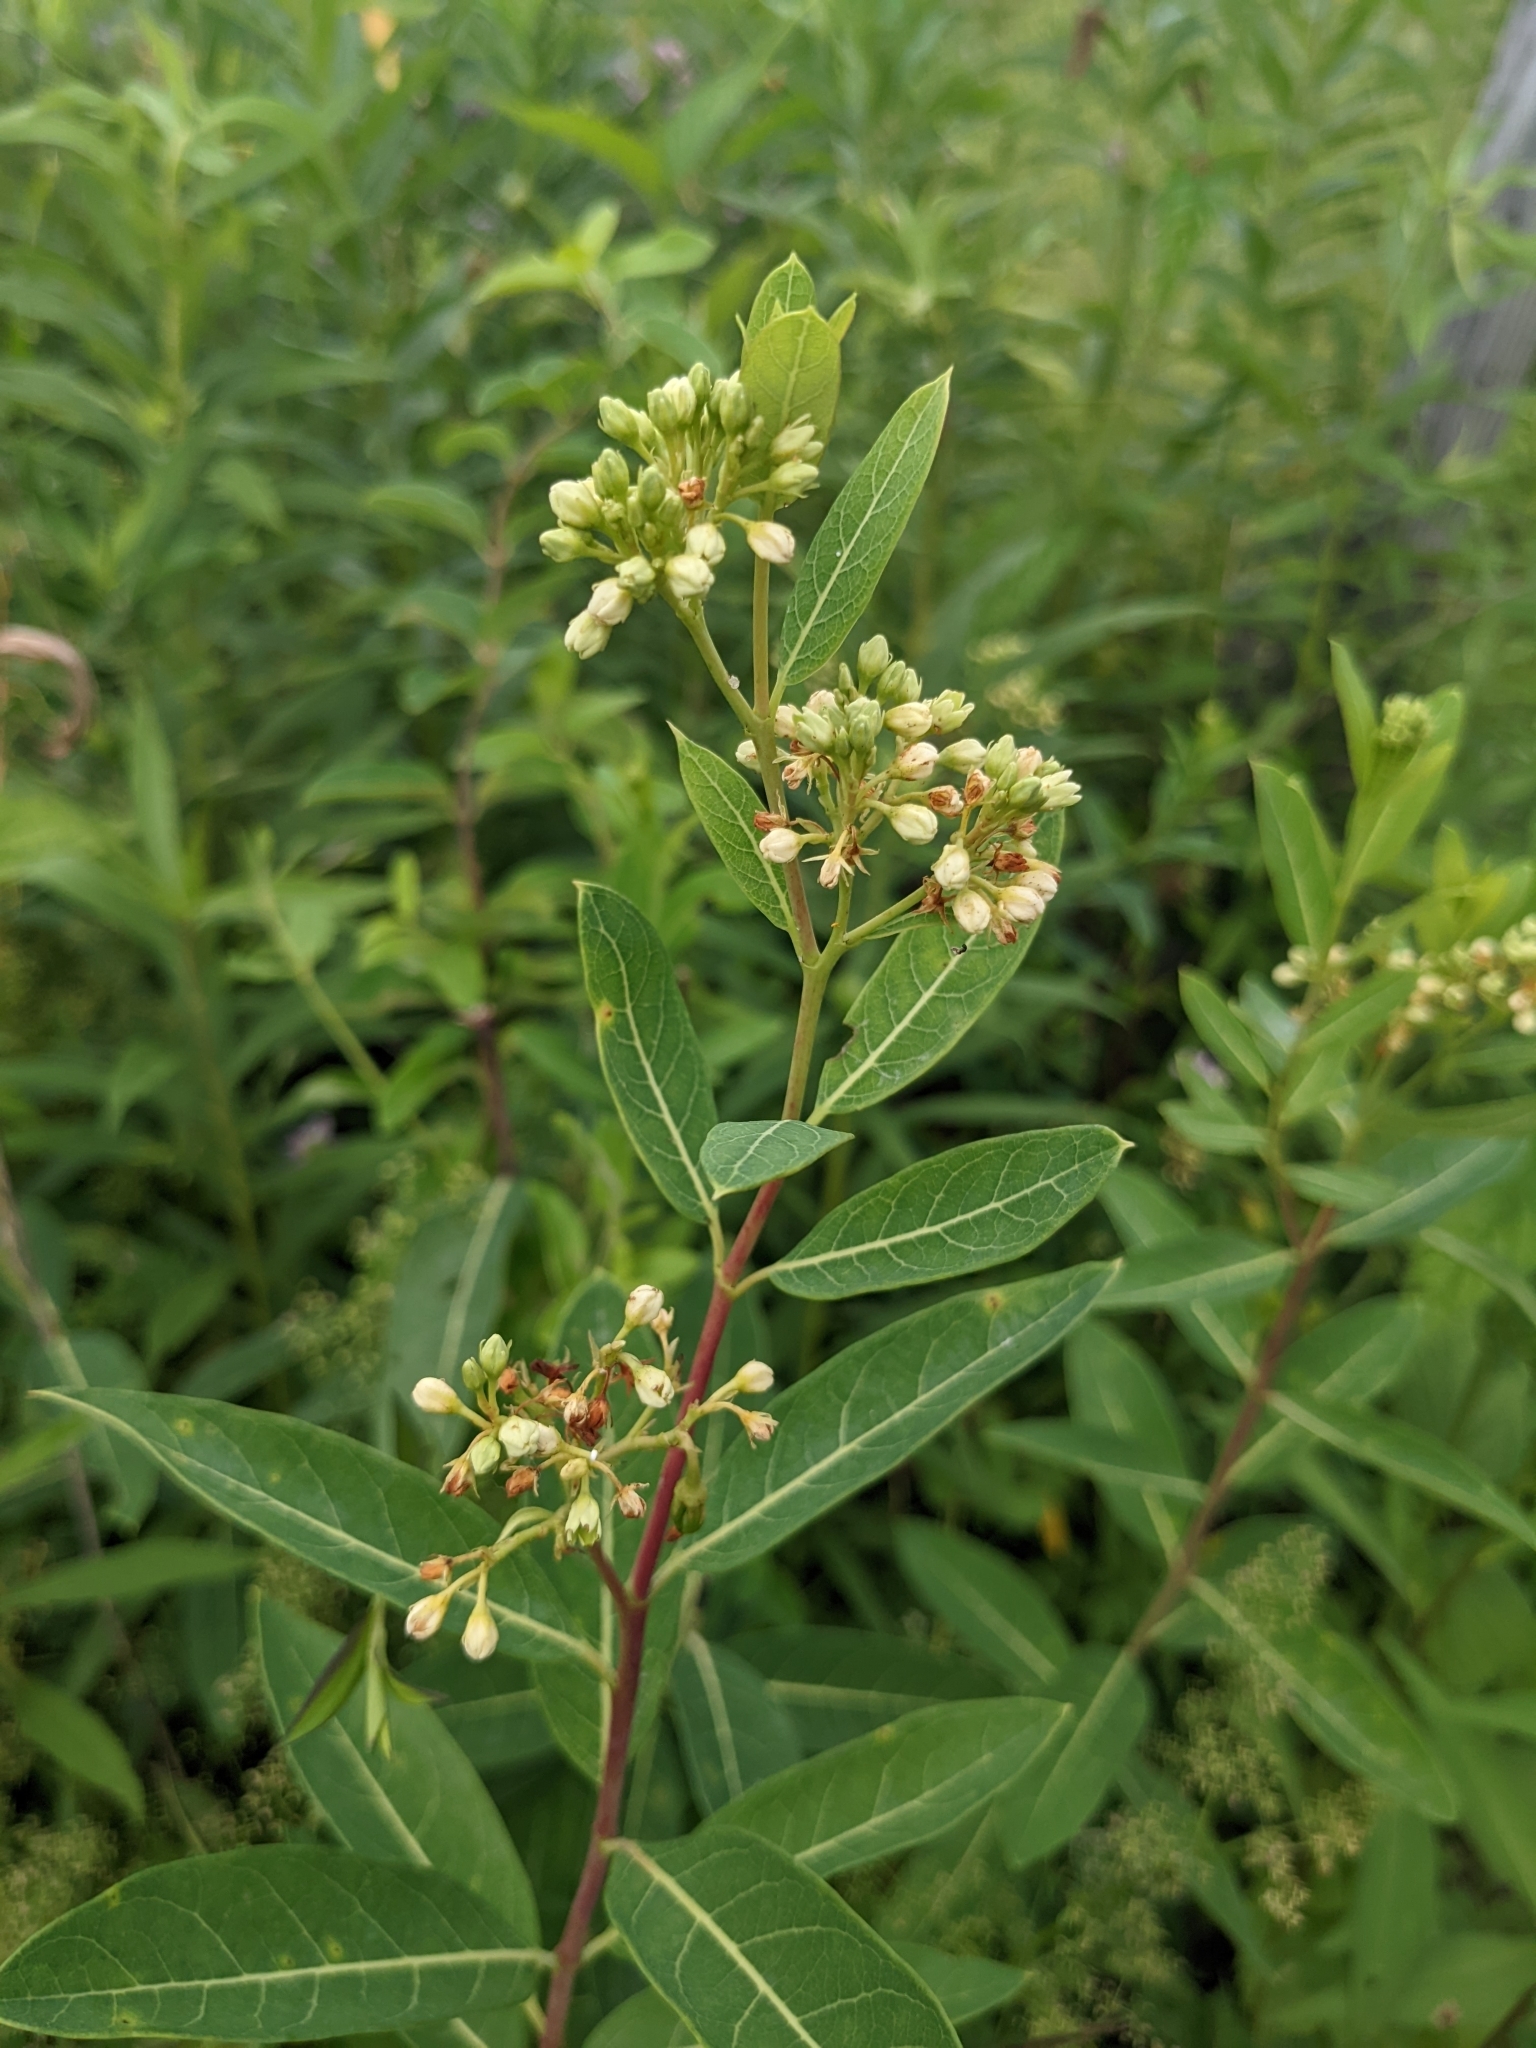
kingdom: Plantae
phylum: Tracheophyta
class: Magnoliopsida
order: Gentianales
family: Apocynaceae
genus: Apocynum
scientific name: Apocynum cannabinum
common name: Hemp dogbane
